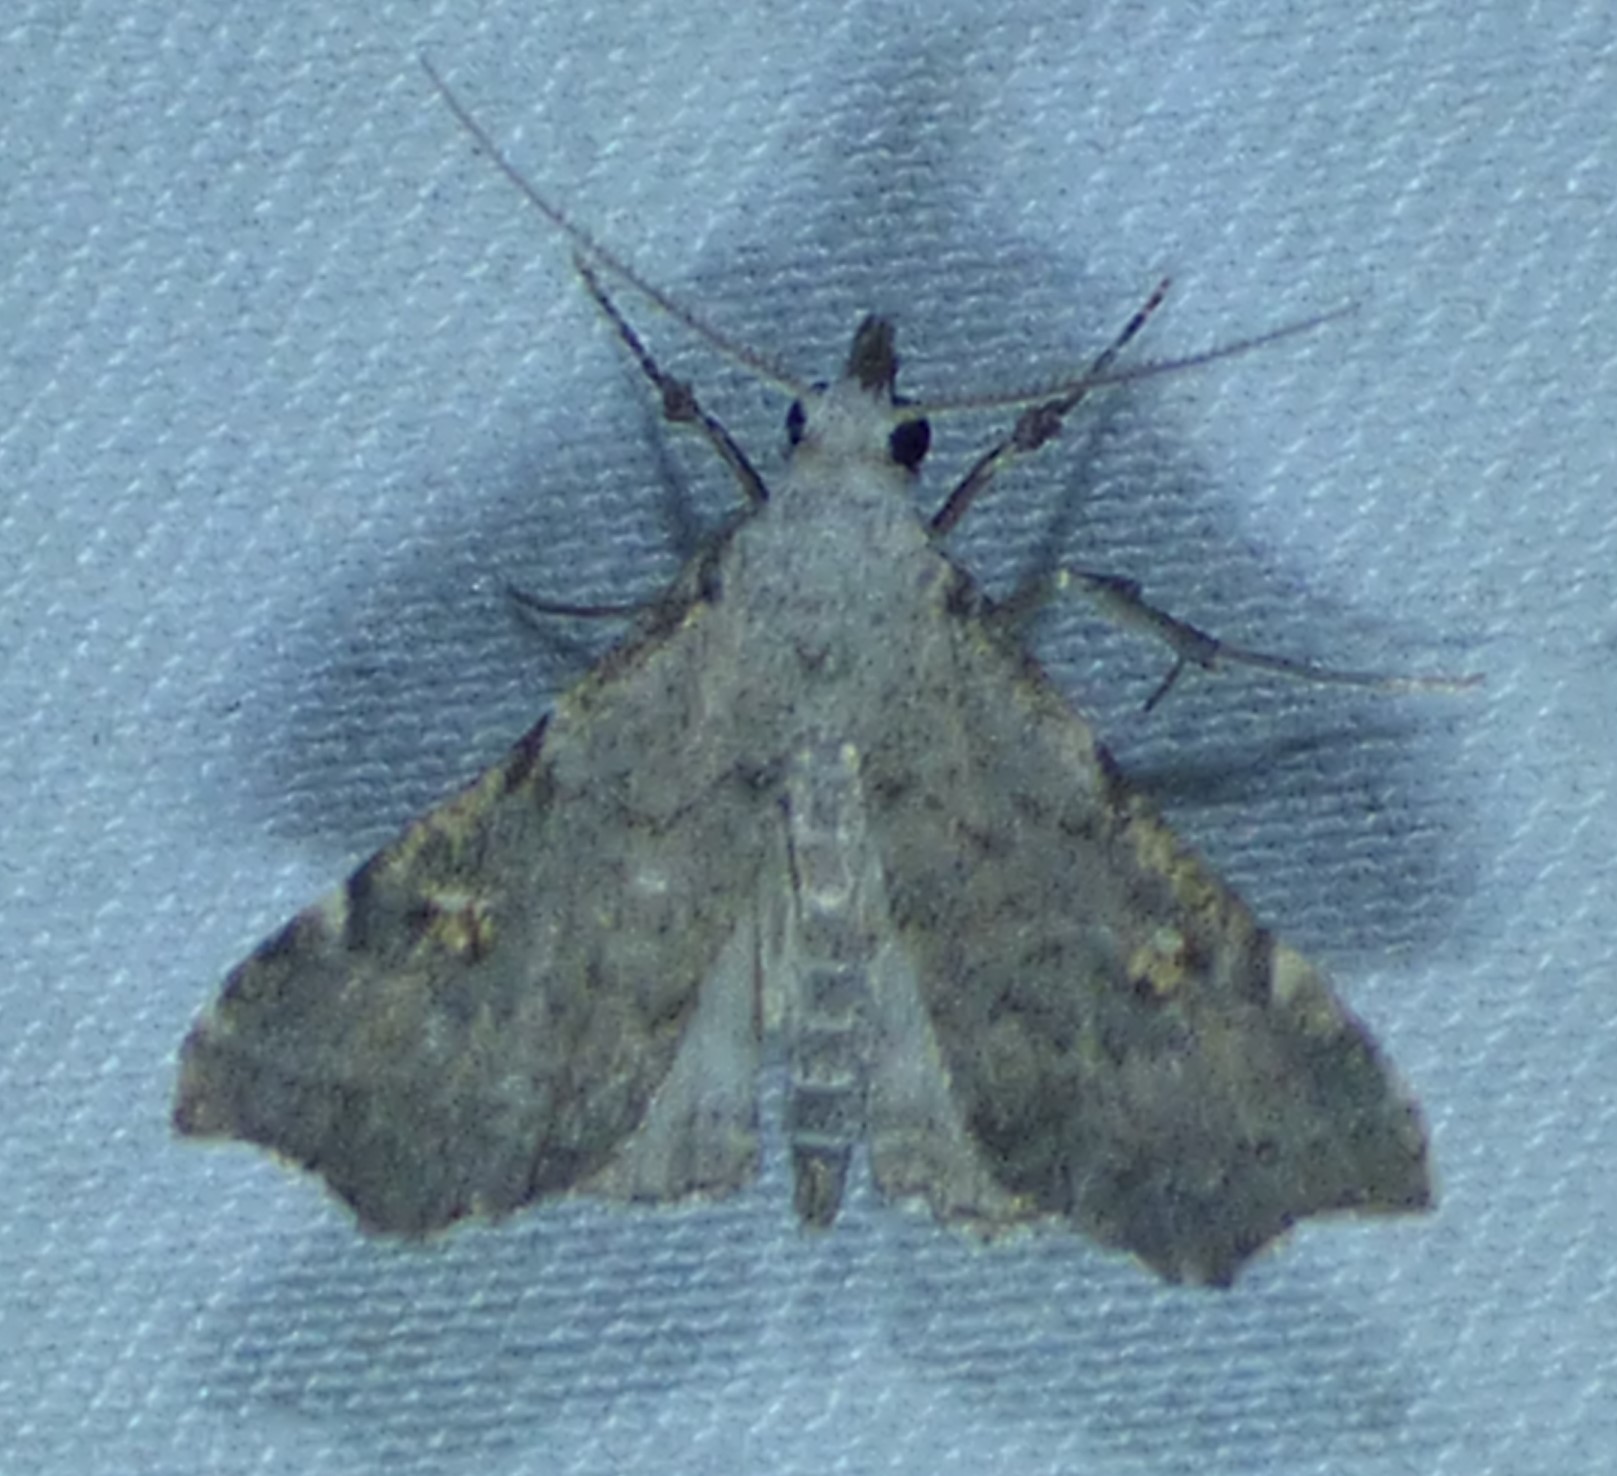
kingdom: Animalia
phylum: Arthropoda
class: Insecta
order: Lepidoptera
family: Erebidae
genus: Redectis
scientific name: Redectis pygmaea
